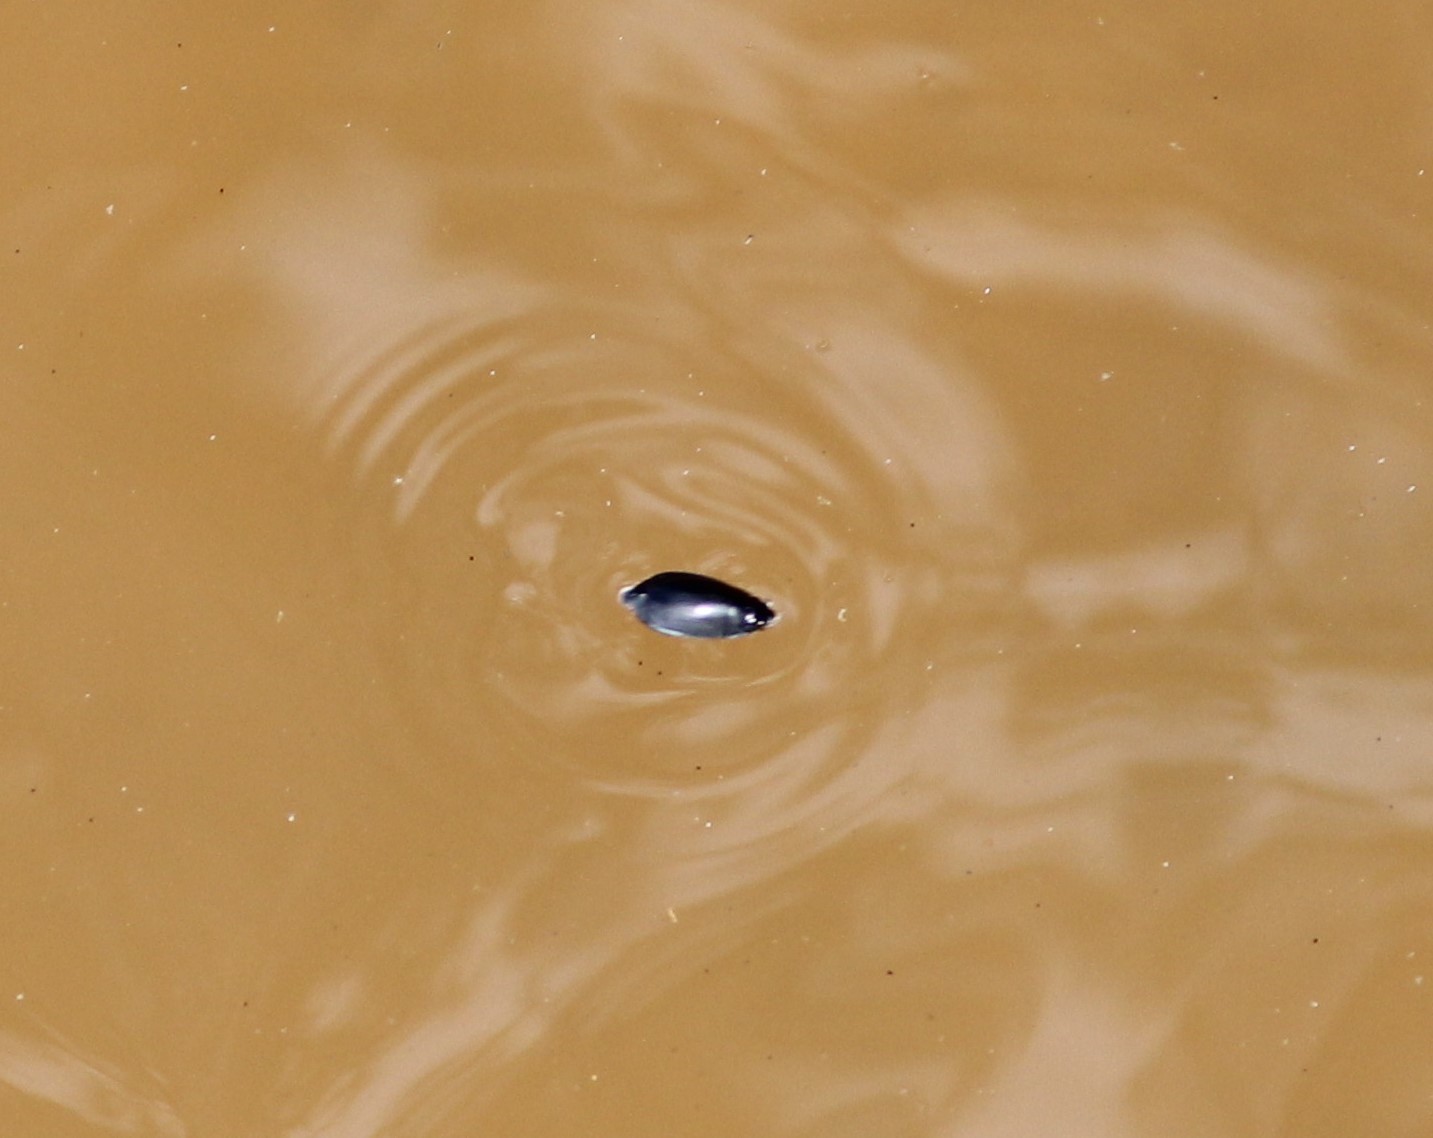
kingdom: Animalia
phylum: Arthropoda
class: Insecta
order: Coleoptera
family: Gyrinidae
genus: Dineutus
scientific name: Dineutus
